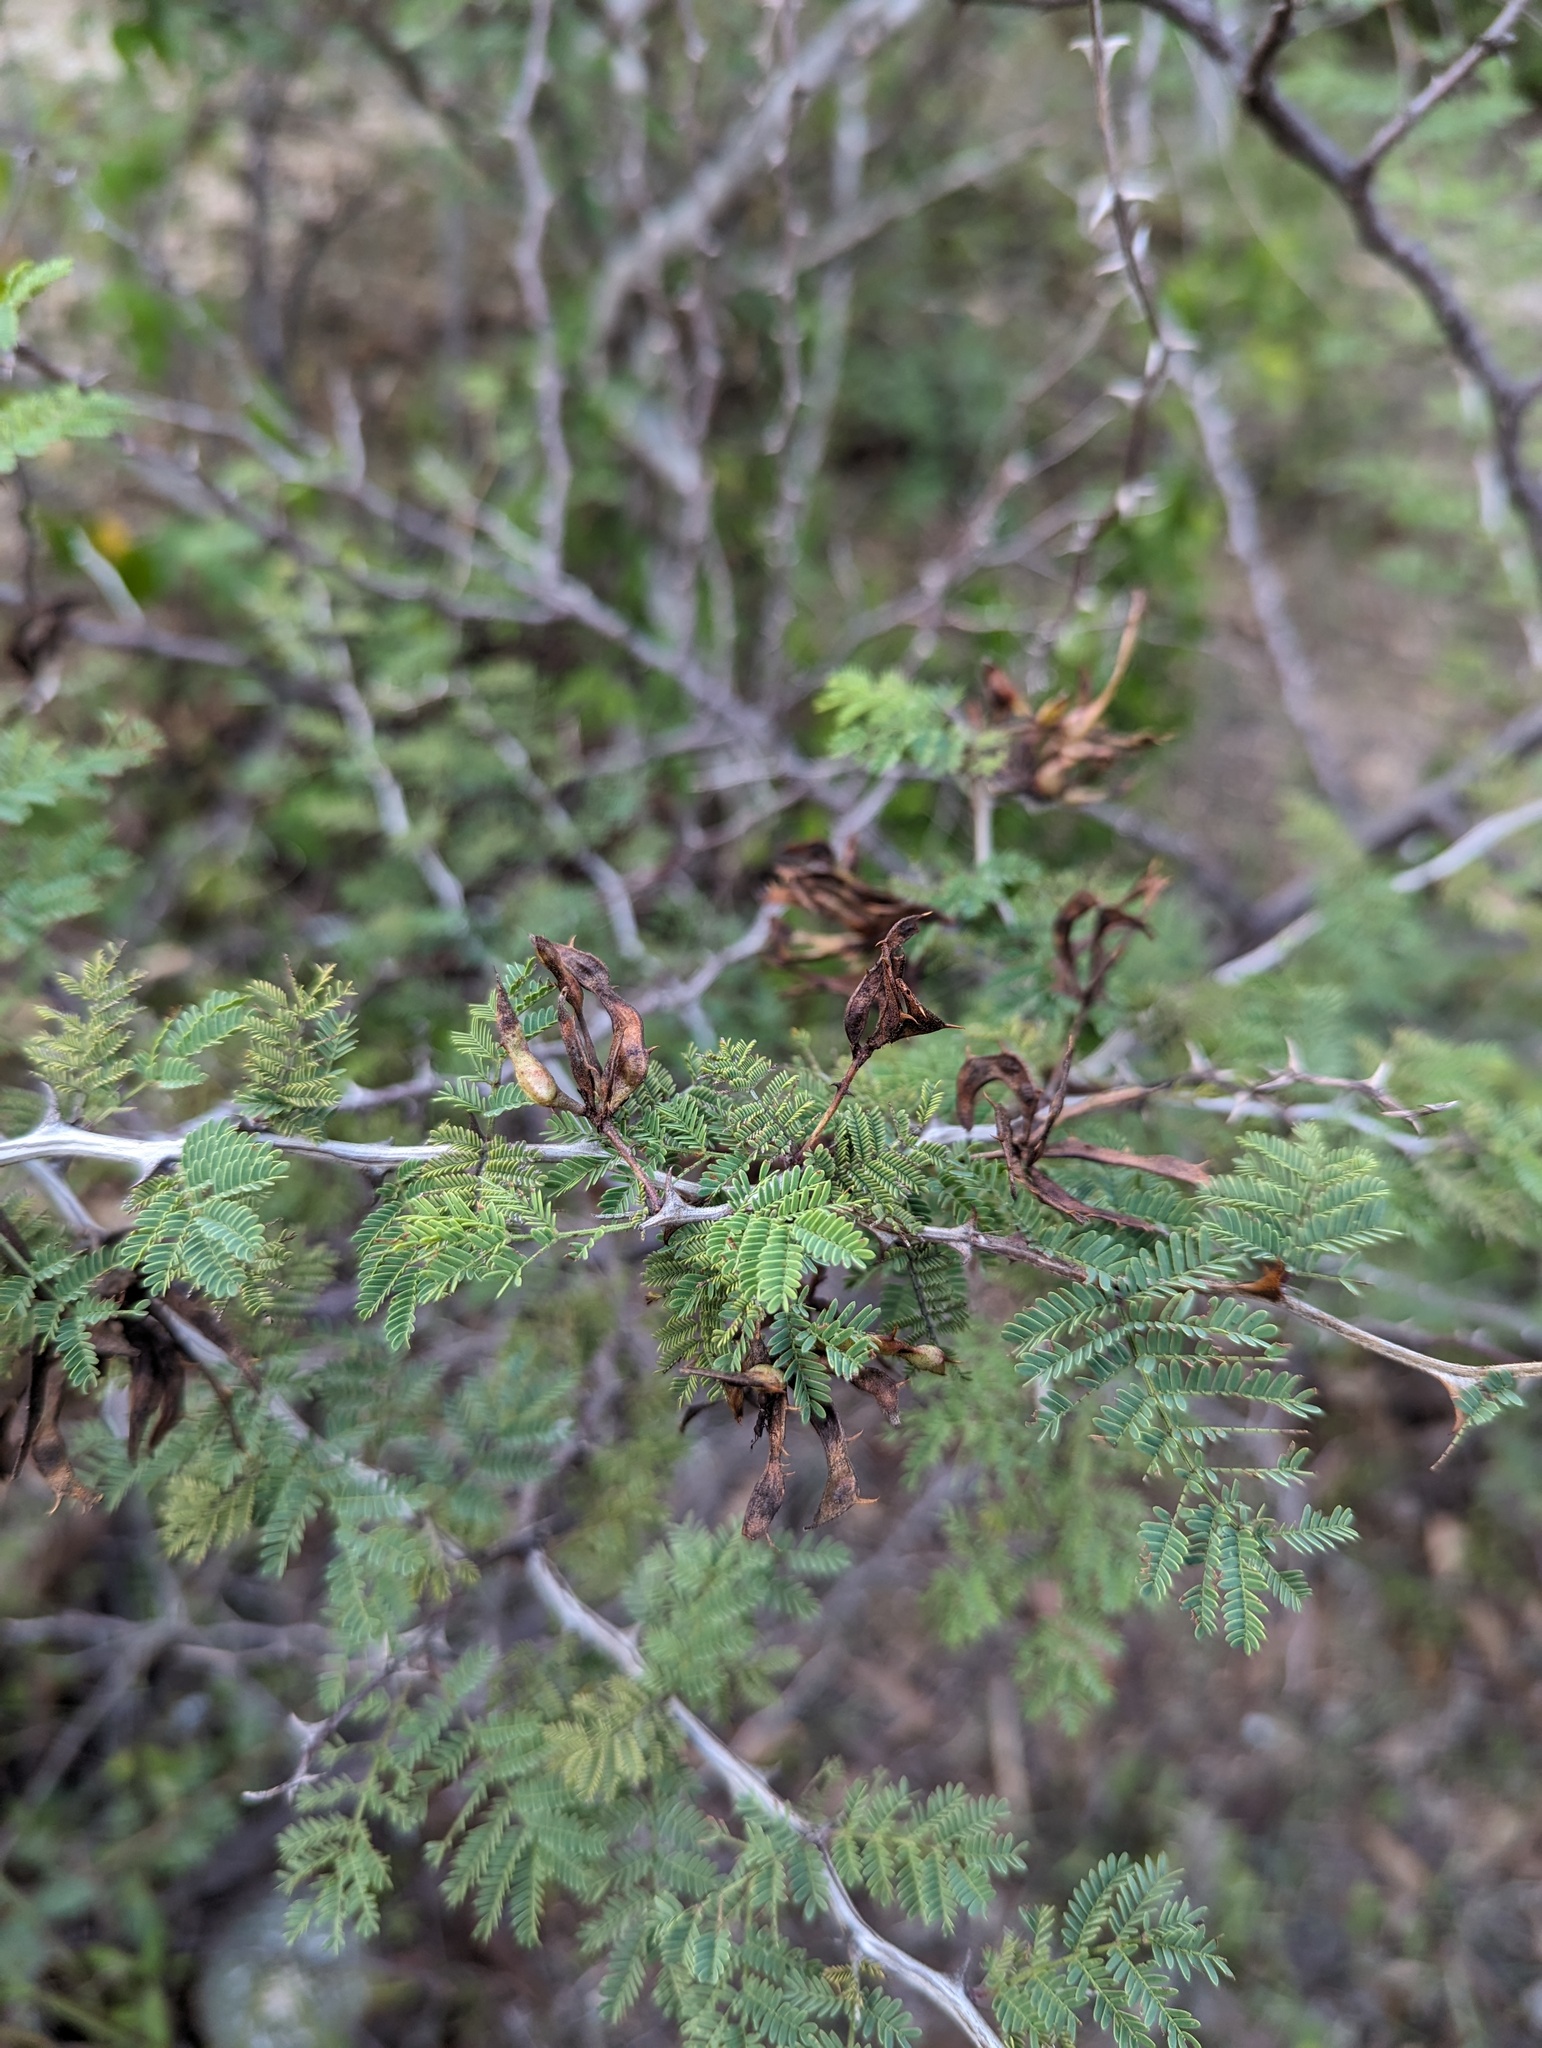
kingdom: Plantae
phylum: Tracheophyta
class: Magnoliopsida
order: Fabales
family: Fabaceae
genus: Mimosa
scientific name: Mimosa aculeaticarpa
